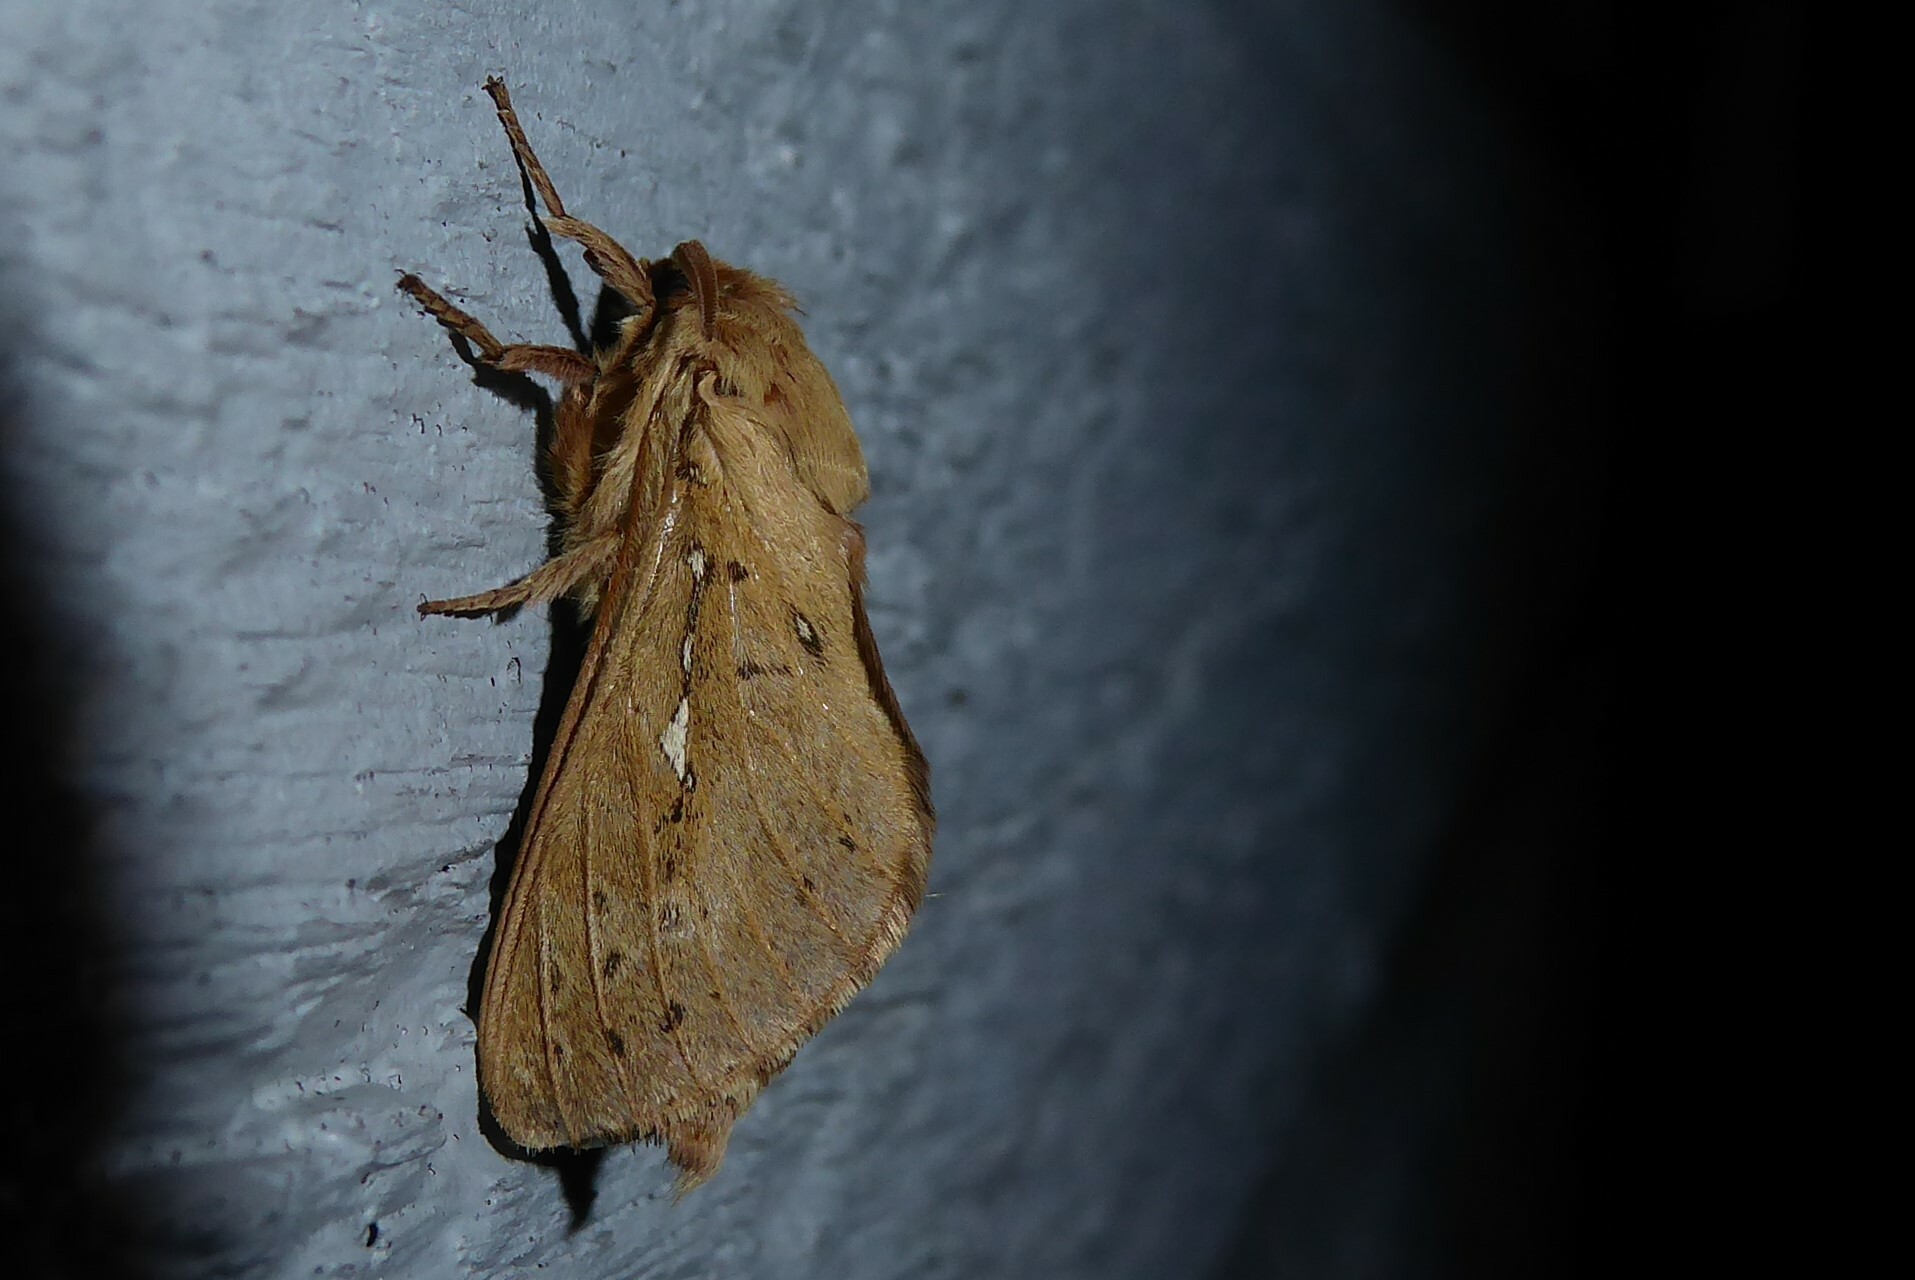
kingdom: Animalia
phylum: Arthropoda
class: Insecta
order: Lepidoptera
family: Hepialidae
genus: Wiseana
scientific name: Wiseana copularis
